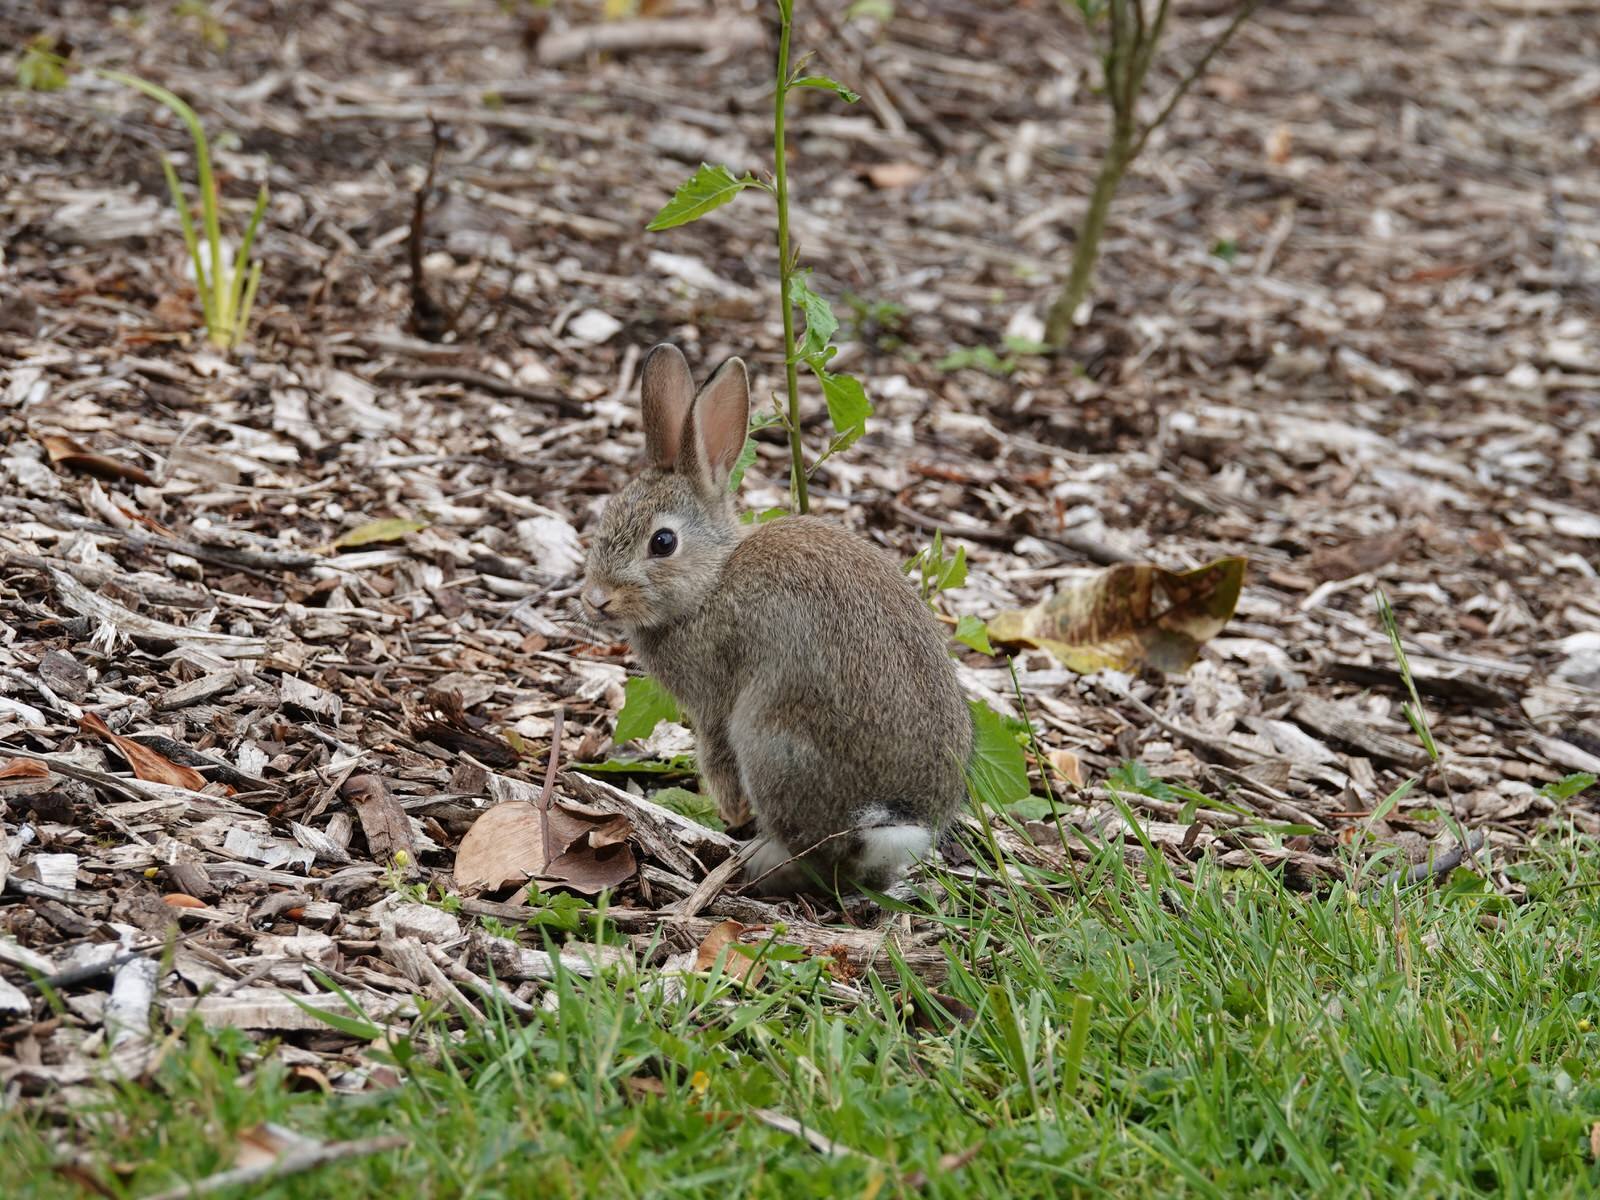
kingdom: Animalia
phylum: Chordata
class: Mammalia
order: Lagomorpha
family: Leporidae
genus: Oryctolagus
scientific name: Oryctolagus cuniculus
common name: European rabbit
